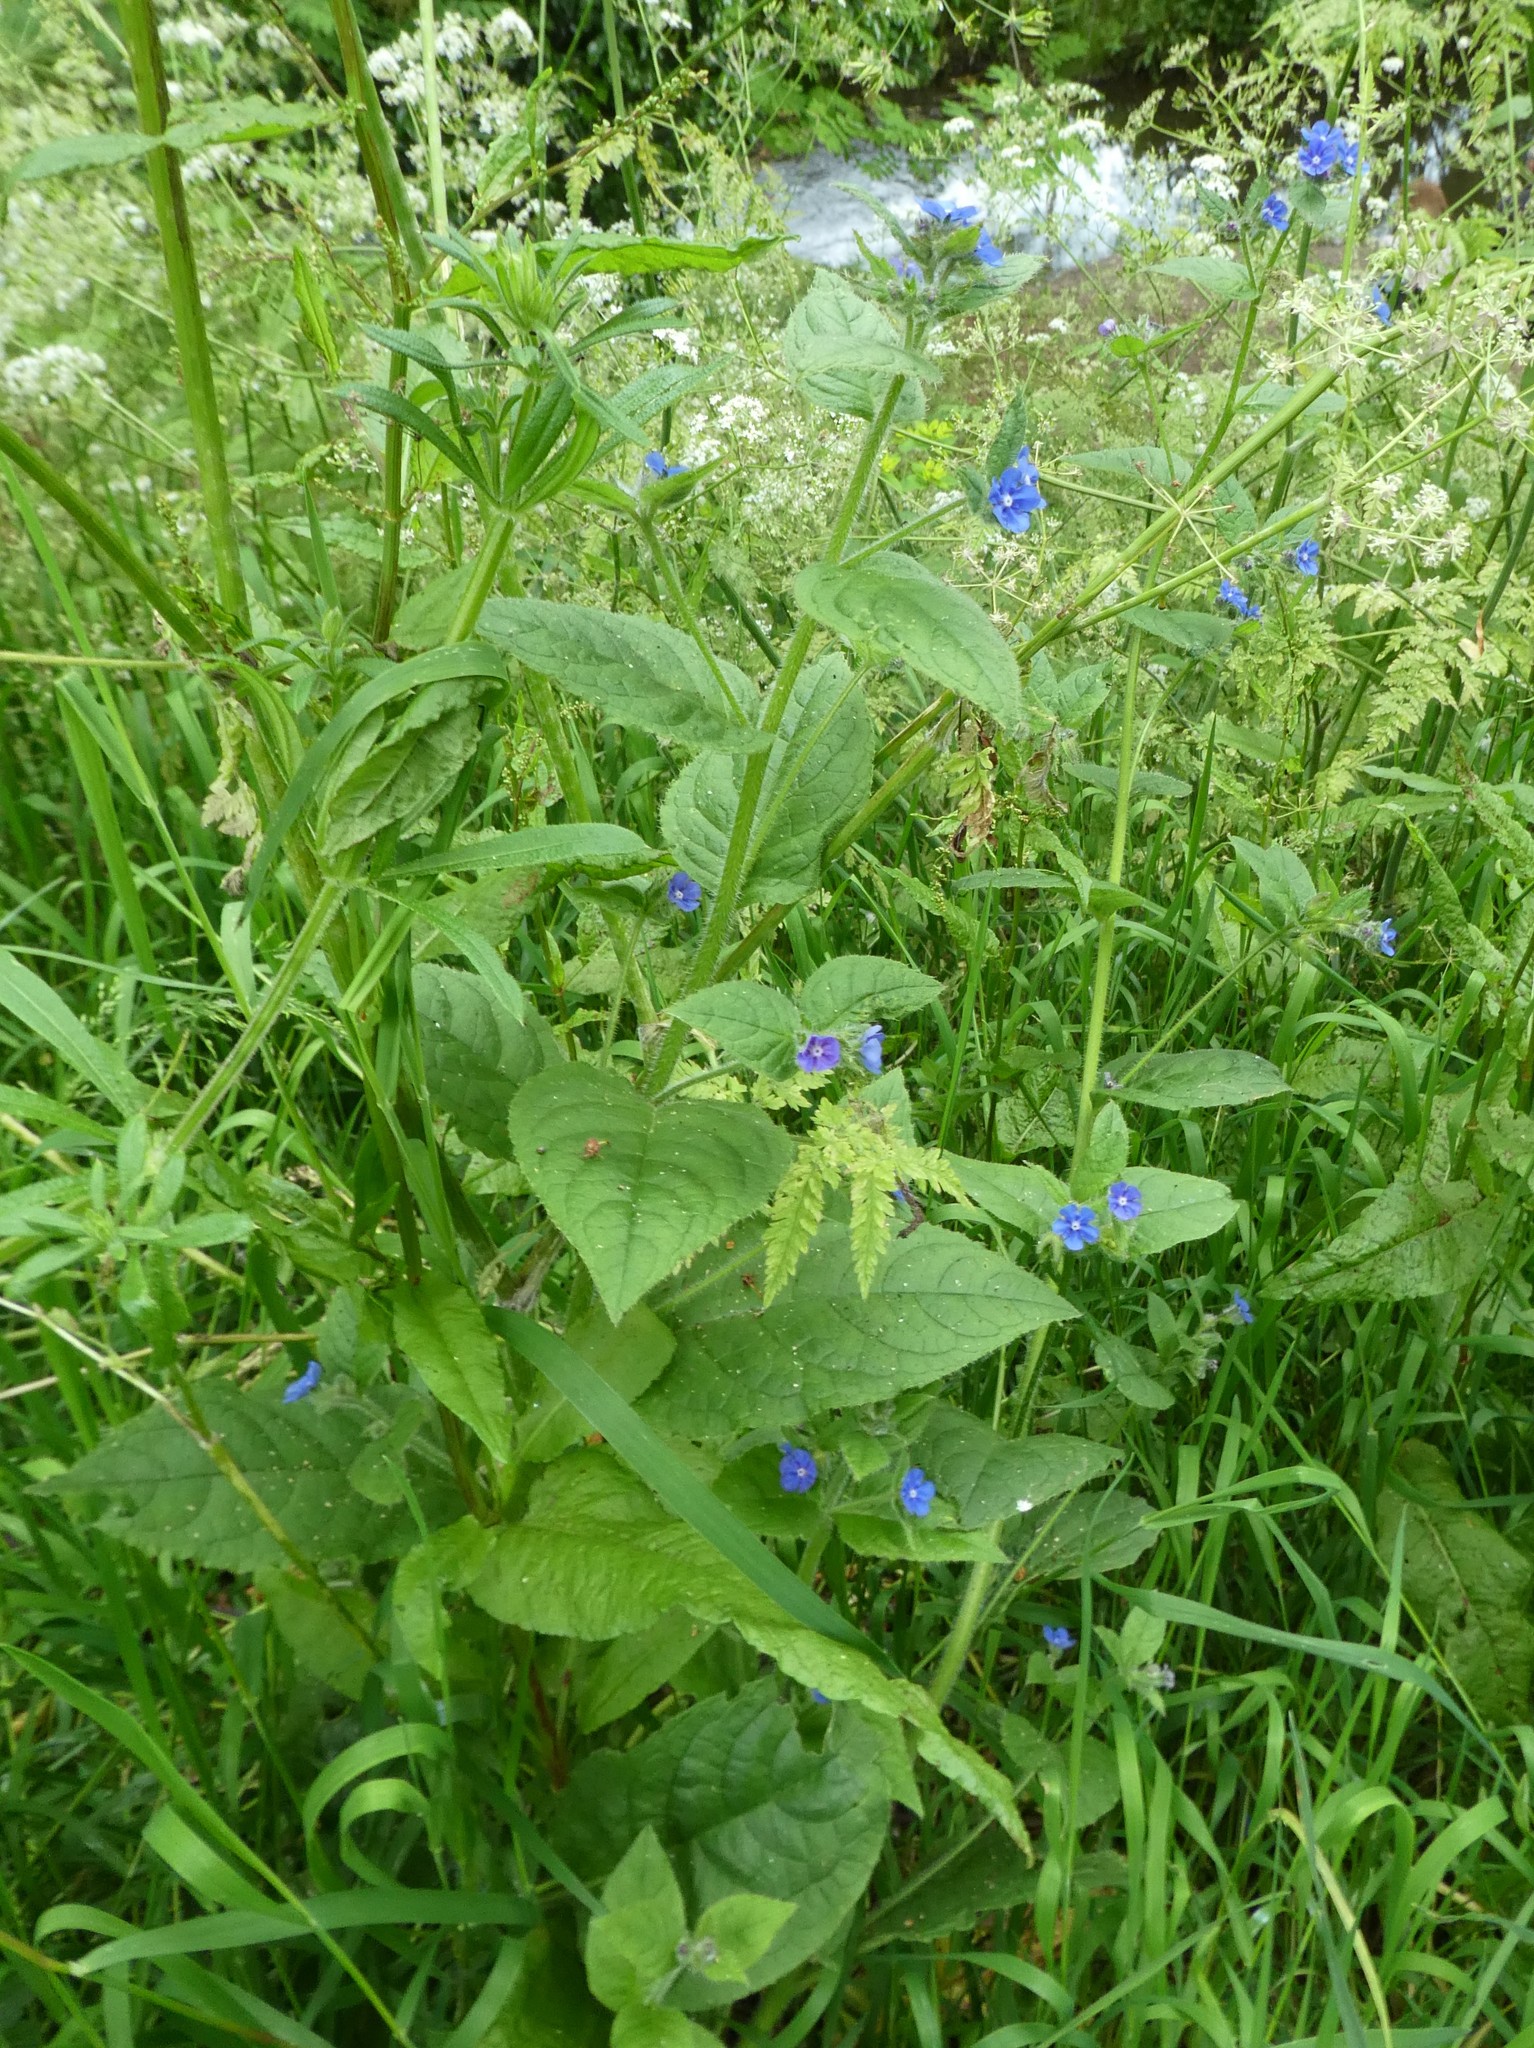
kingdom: Plantae
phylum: Tracheophyta
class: Magnoliopsida
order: Boraginales
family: Boraginaceae
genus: Pentaglottis
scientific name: Pentaglottis sempervirens
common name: Green alkanet
